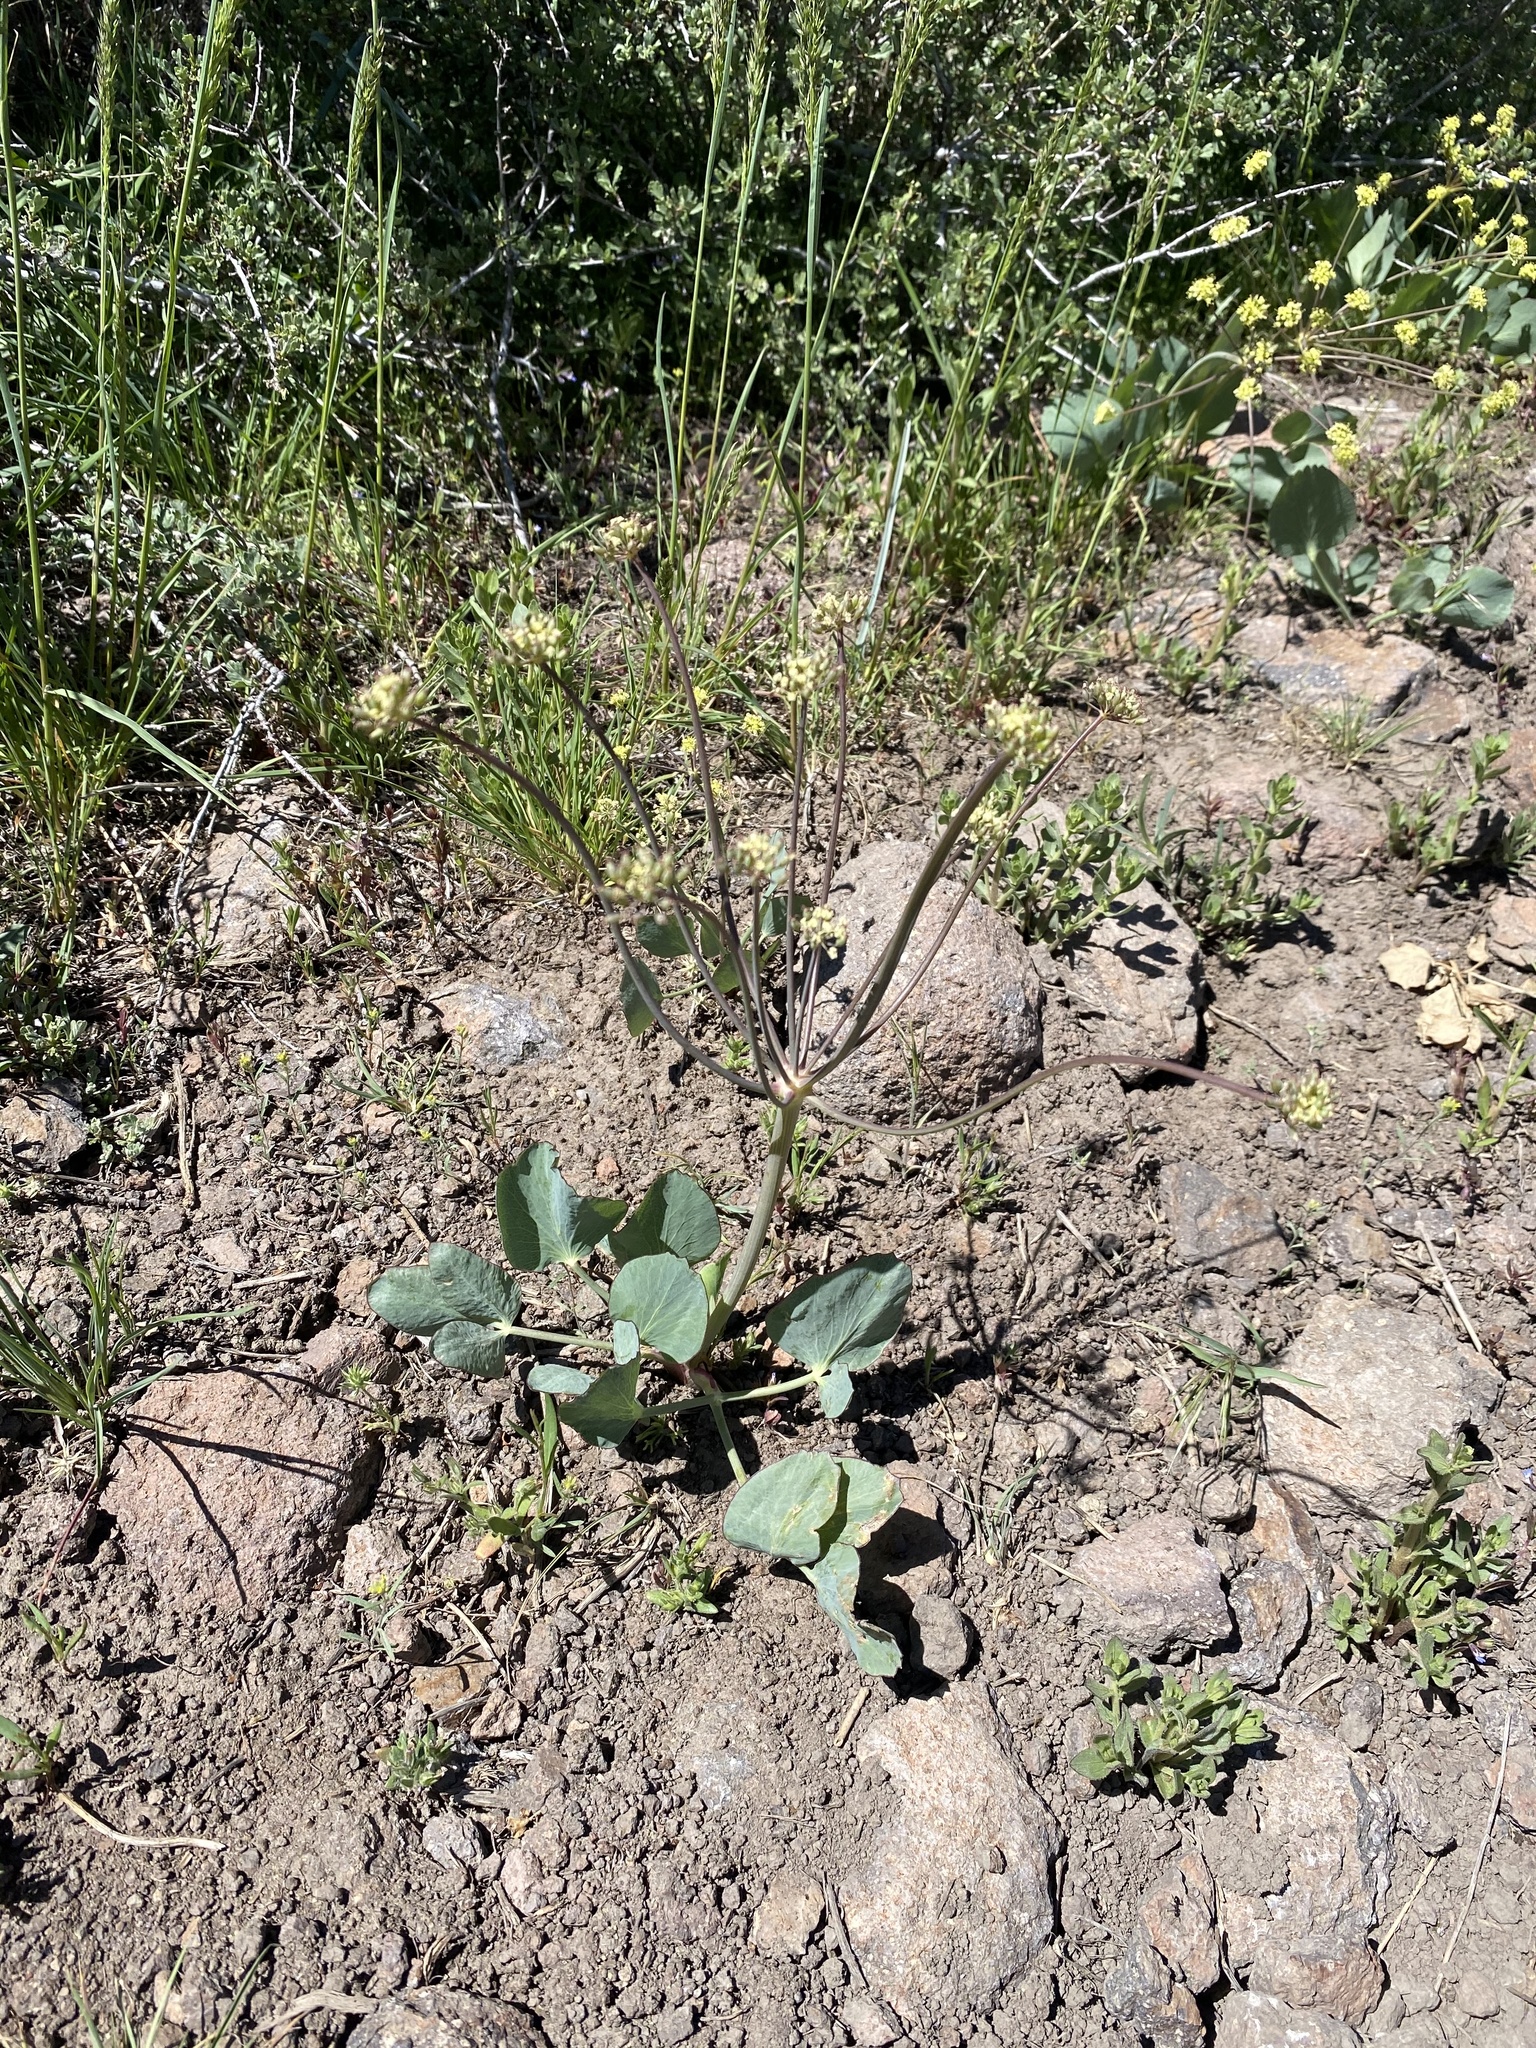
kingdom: Plantae
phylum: Tracheophyta
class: Magnoliopsida
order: Apiales
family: Apiaceae
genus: Lomatium
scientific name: Lomatium nudicaule
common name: Pestle lomatium
